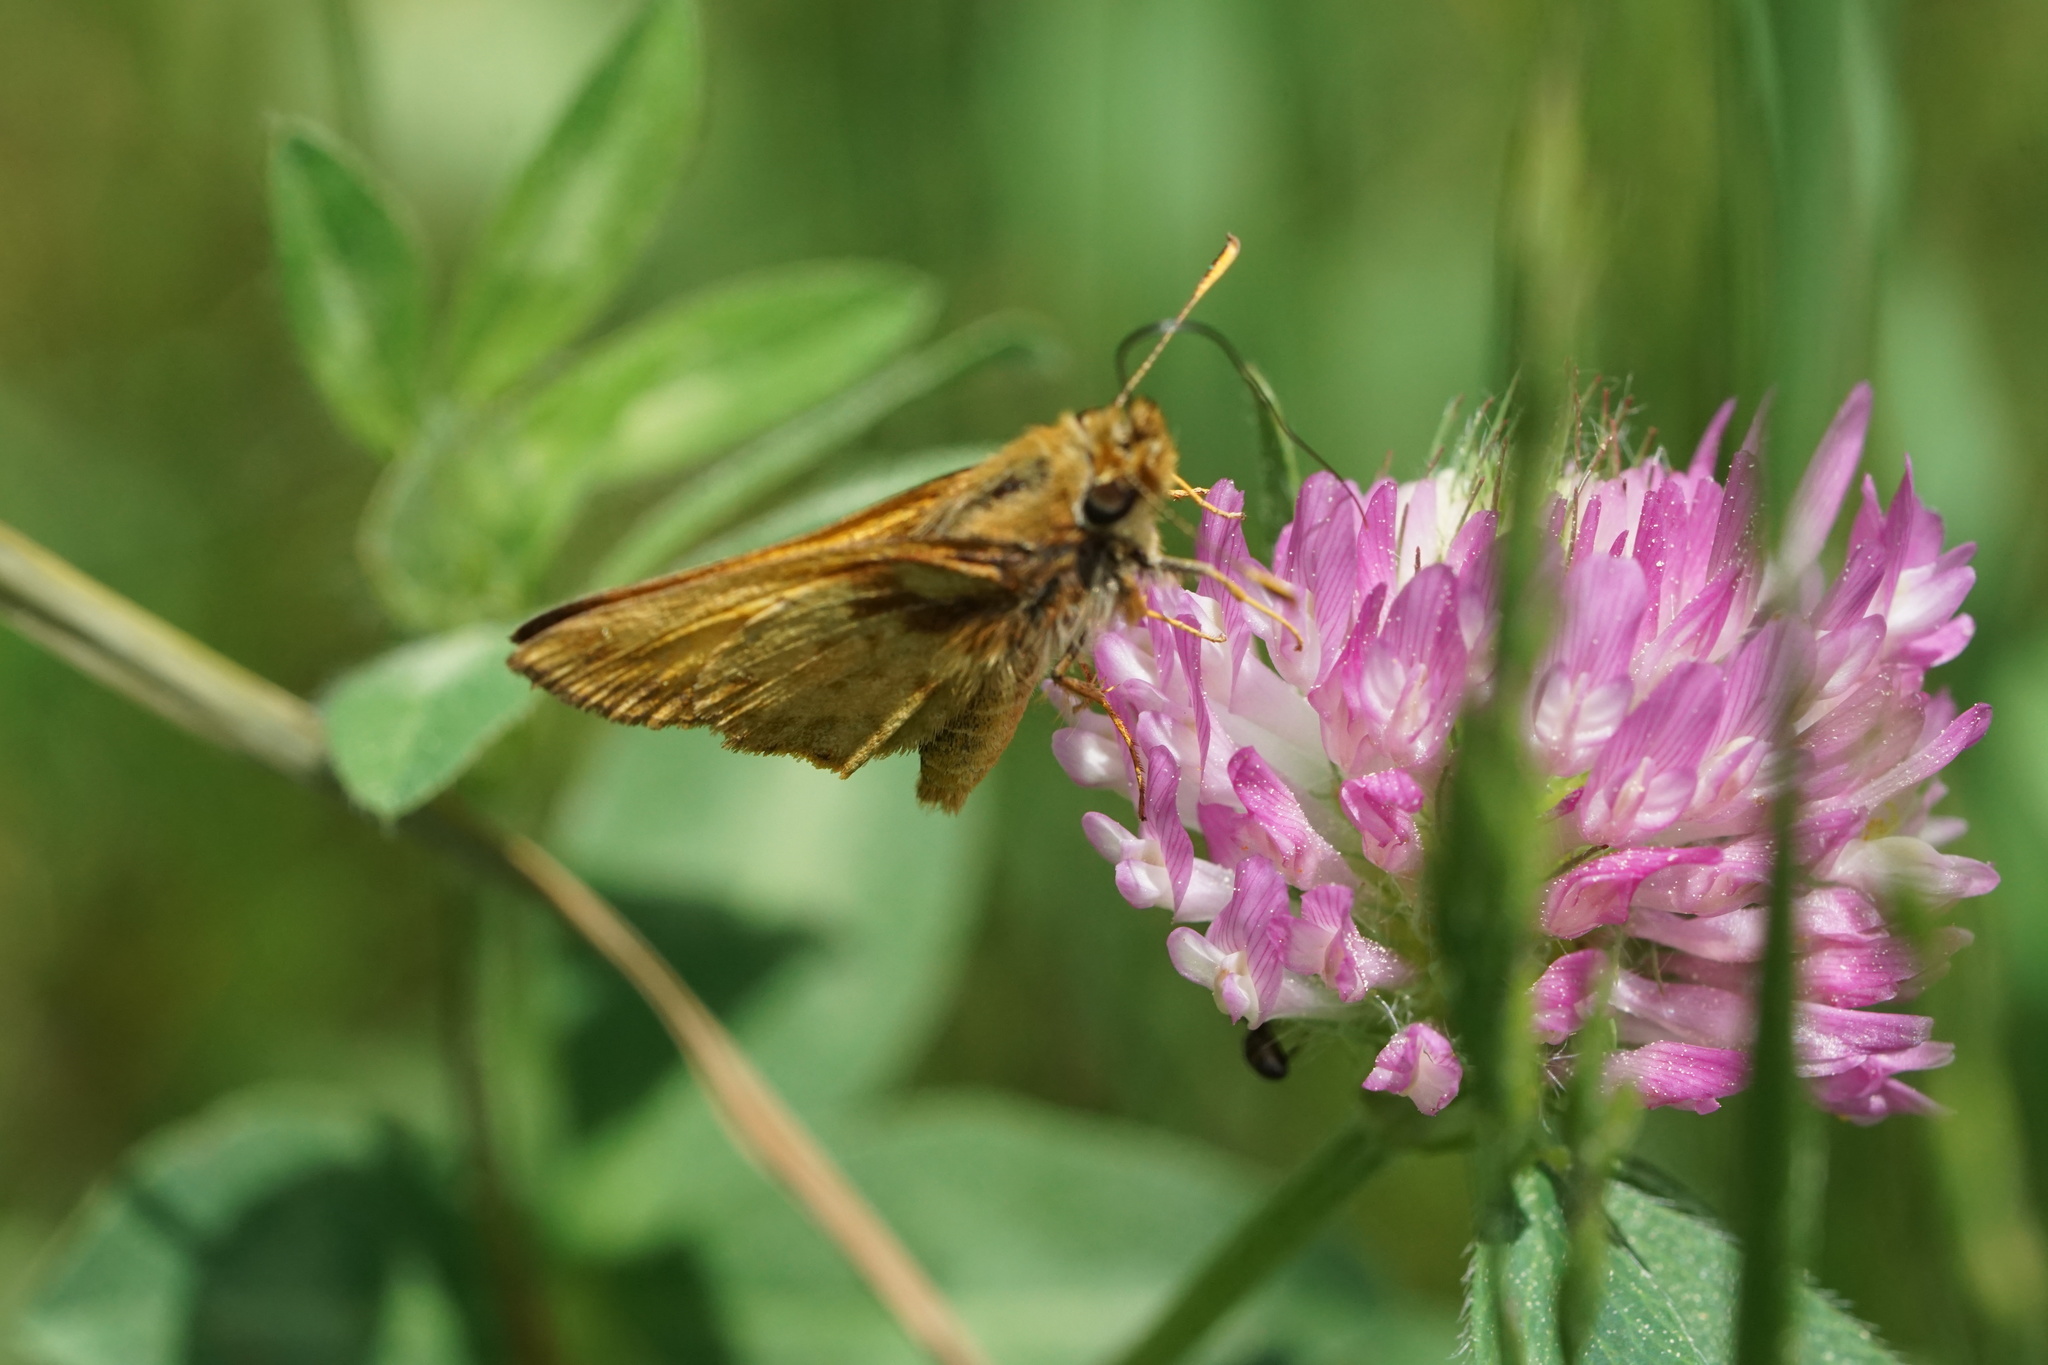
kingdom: Animalia
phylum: Arthropoda
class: Insecta
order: Lepidoptera
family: Hesperiidae
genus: Lon
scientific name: Lon zabulon
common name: Zabulon skipper
